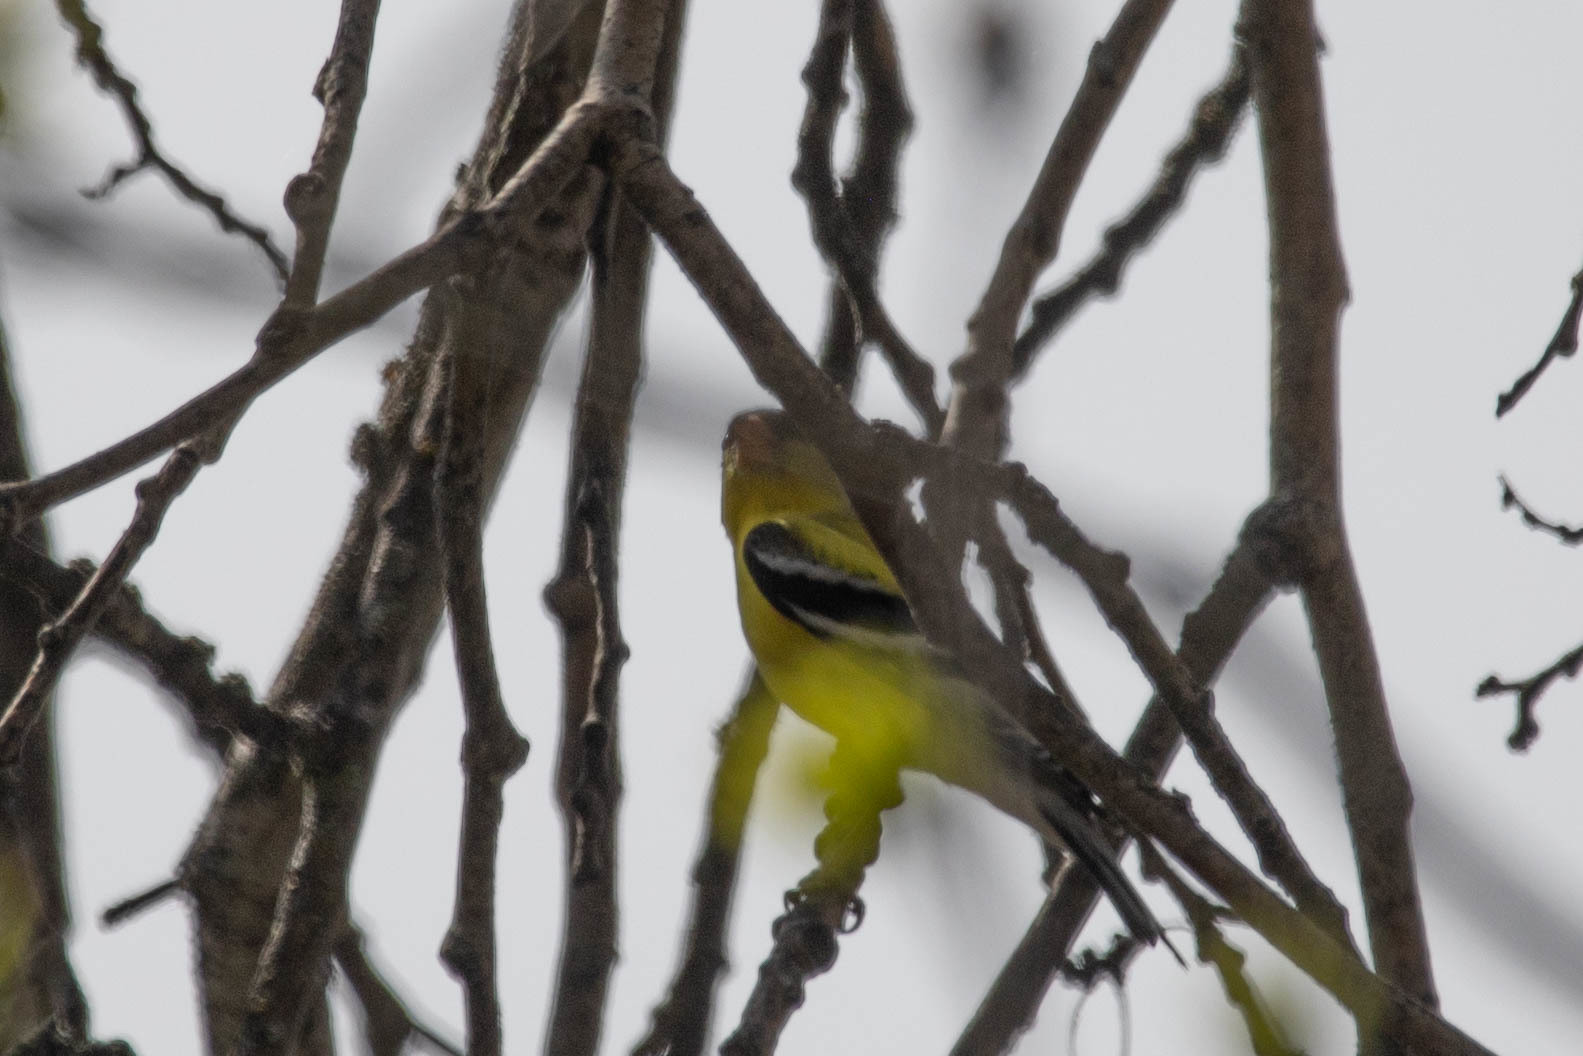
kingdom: Animalia
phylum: Chordata
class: Aves
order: Passeriformes
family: Fringillidae
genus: Spinus
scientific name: Spinus tristis
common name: American goldfinch
